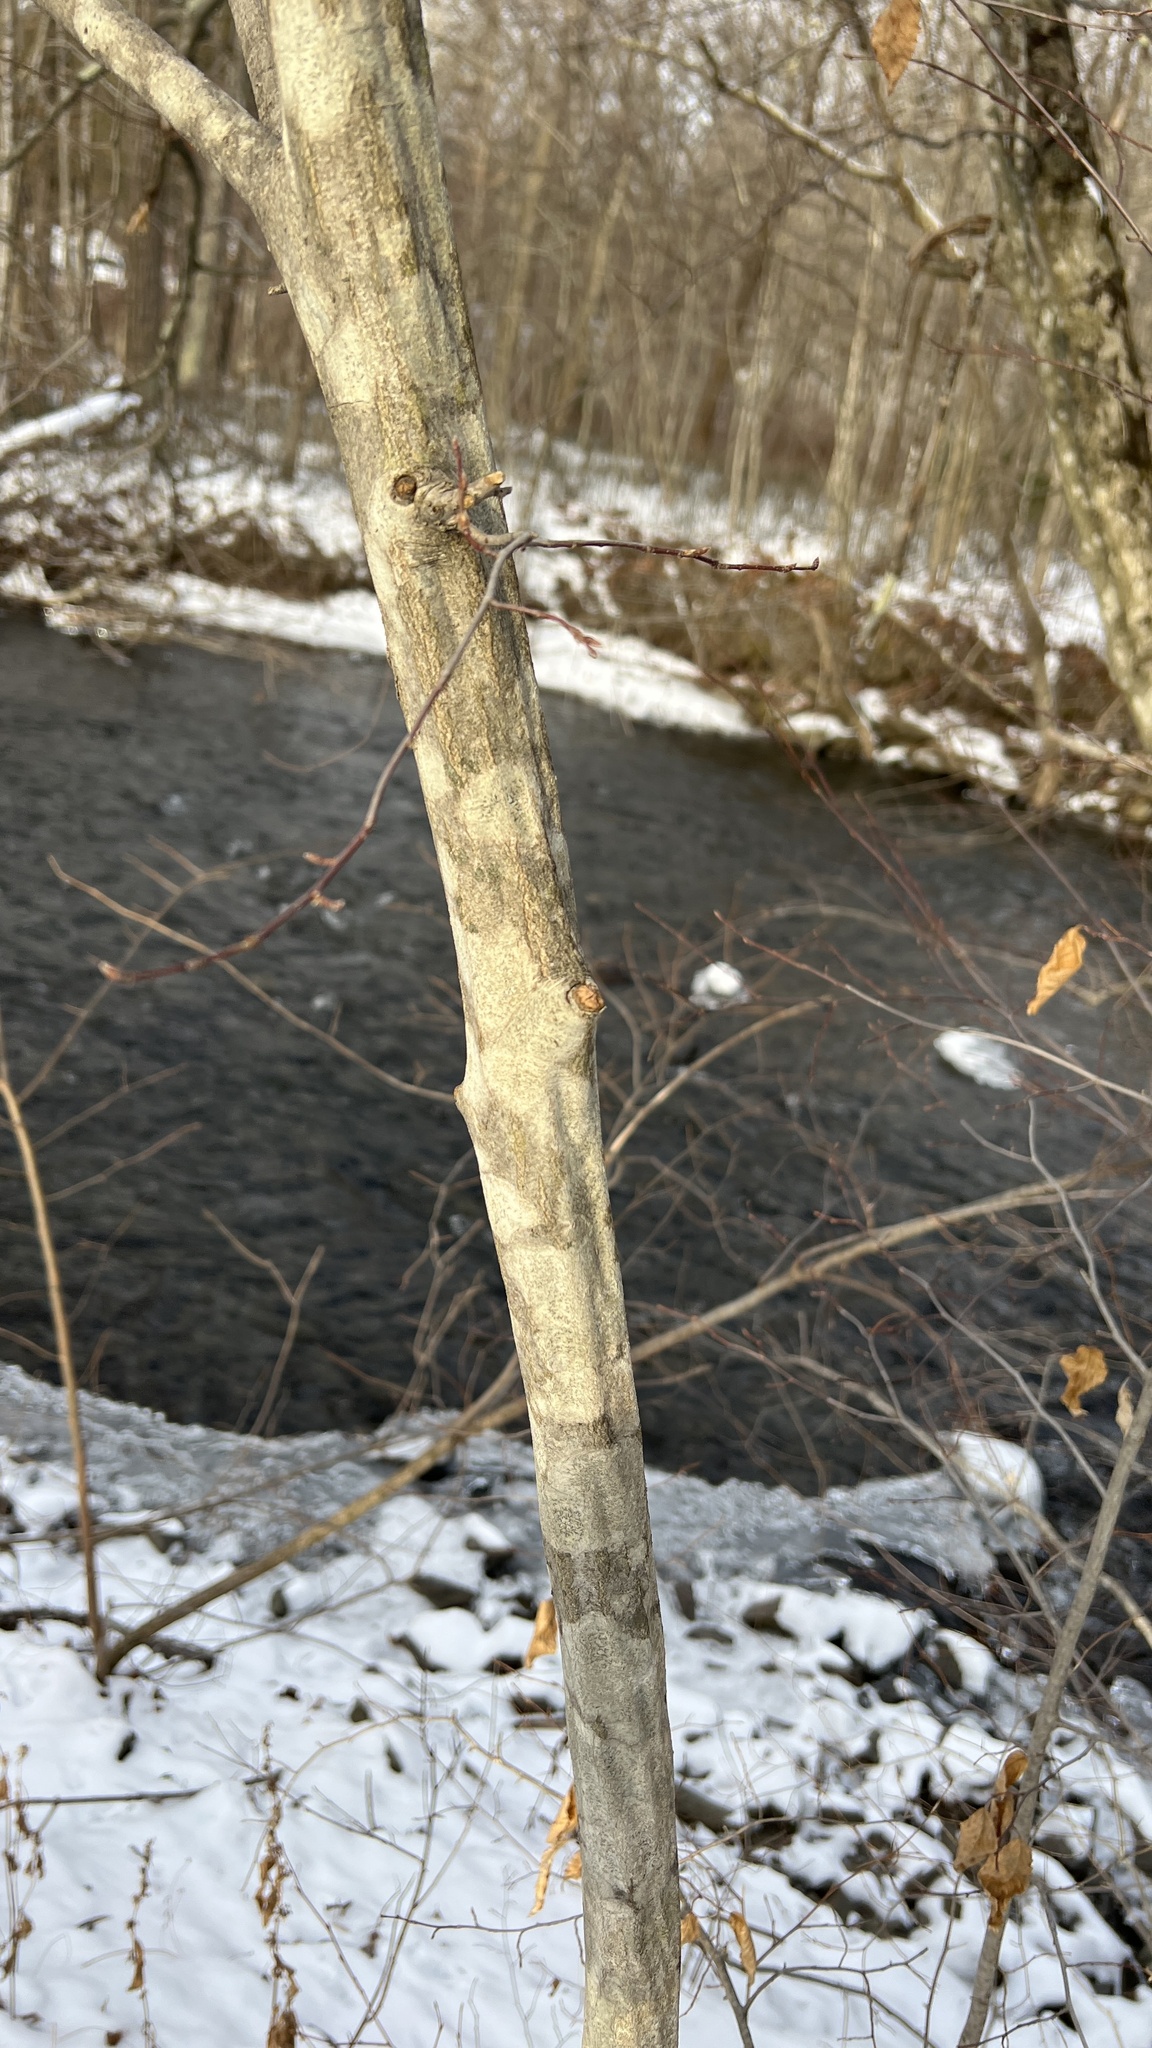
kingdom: Plantae
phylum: Tracheophyta
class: Magnoliopsida
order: Fagales
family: Betulaceae
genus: Carpinus
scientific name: Carpinus caroliniana
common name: American hornbeam
